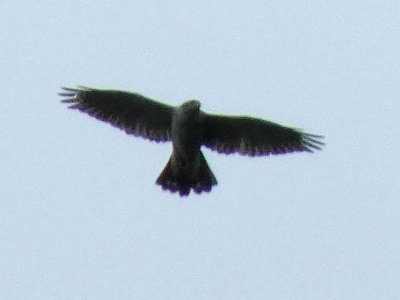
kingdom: Animalia
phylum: Chordata
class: Aves
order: Accipitriformes
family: Accipitridae
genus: Accipiter
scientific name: Accipiter gentilis
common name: Northern goshawk
